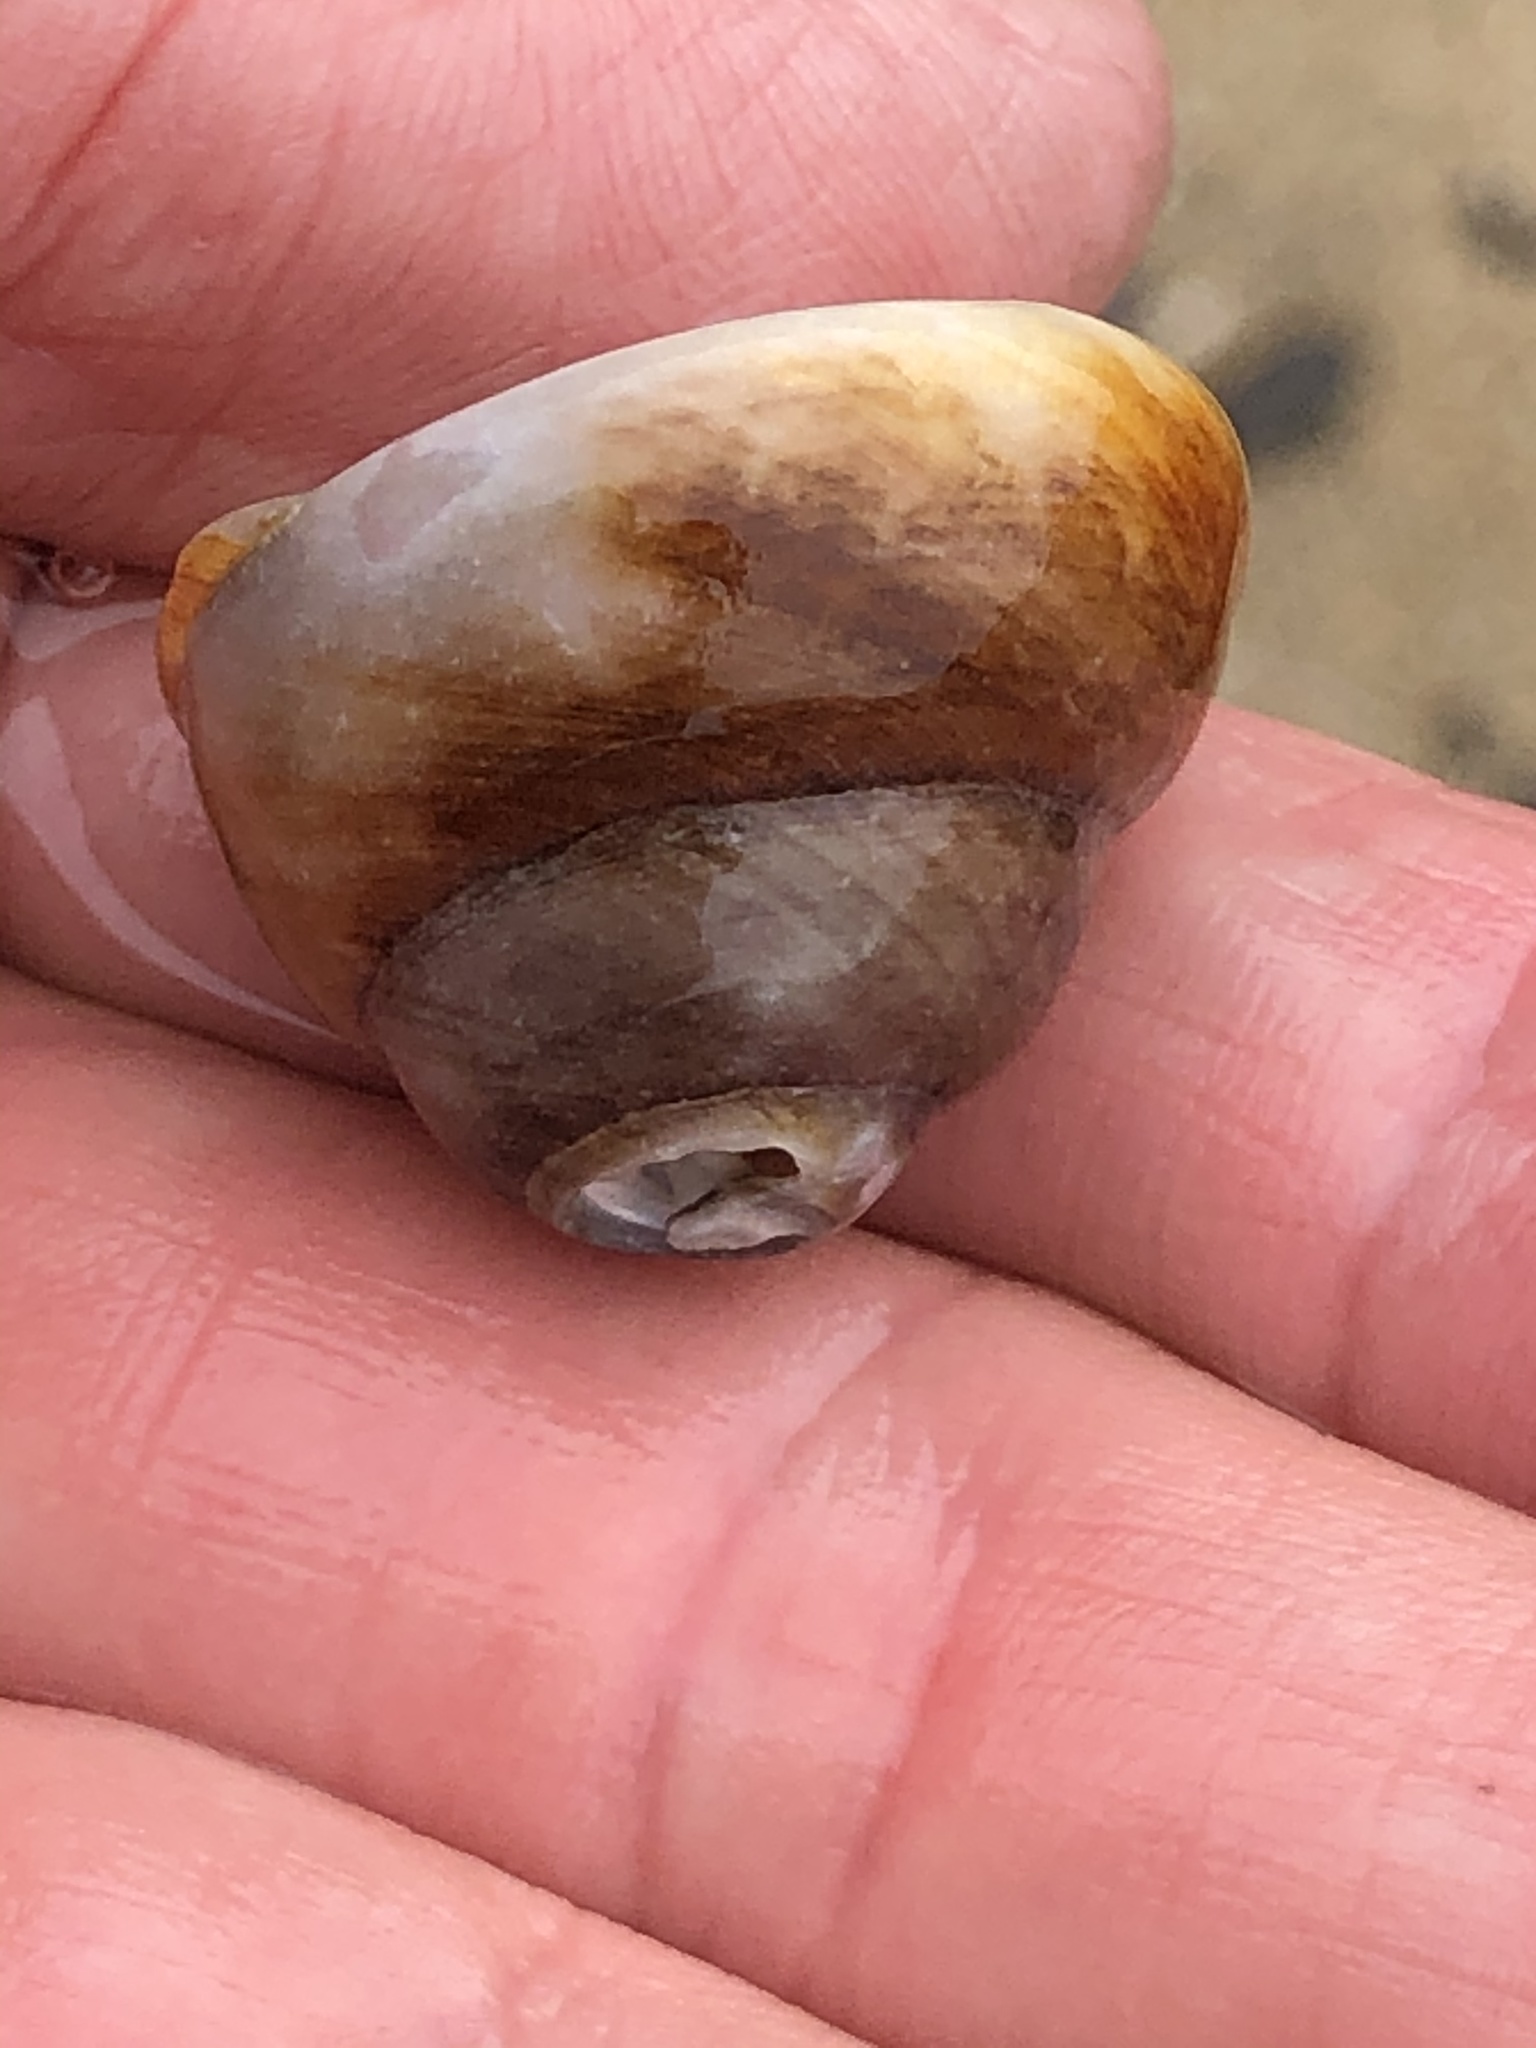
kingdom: Animalia
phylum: Mollusca
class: Gastropoda
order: Trochida
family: Tegulidae
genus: Tegula
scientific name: Tegula brunnea
